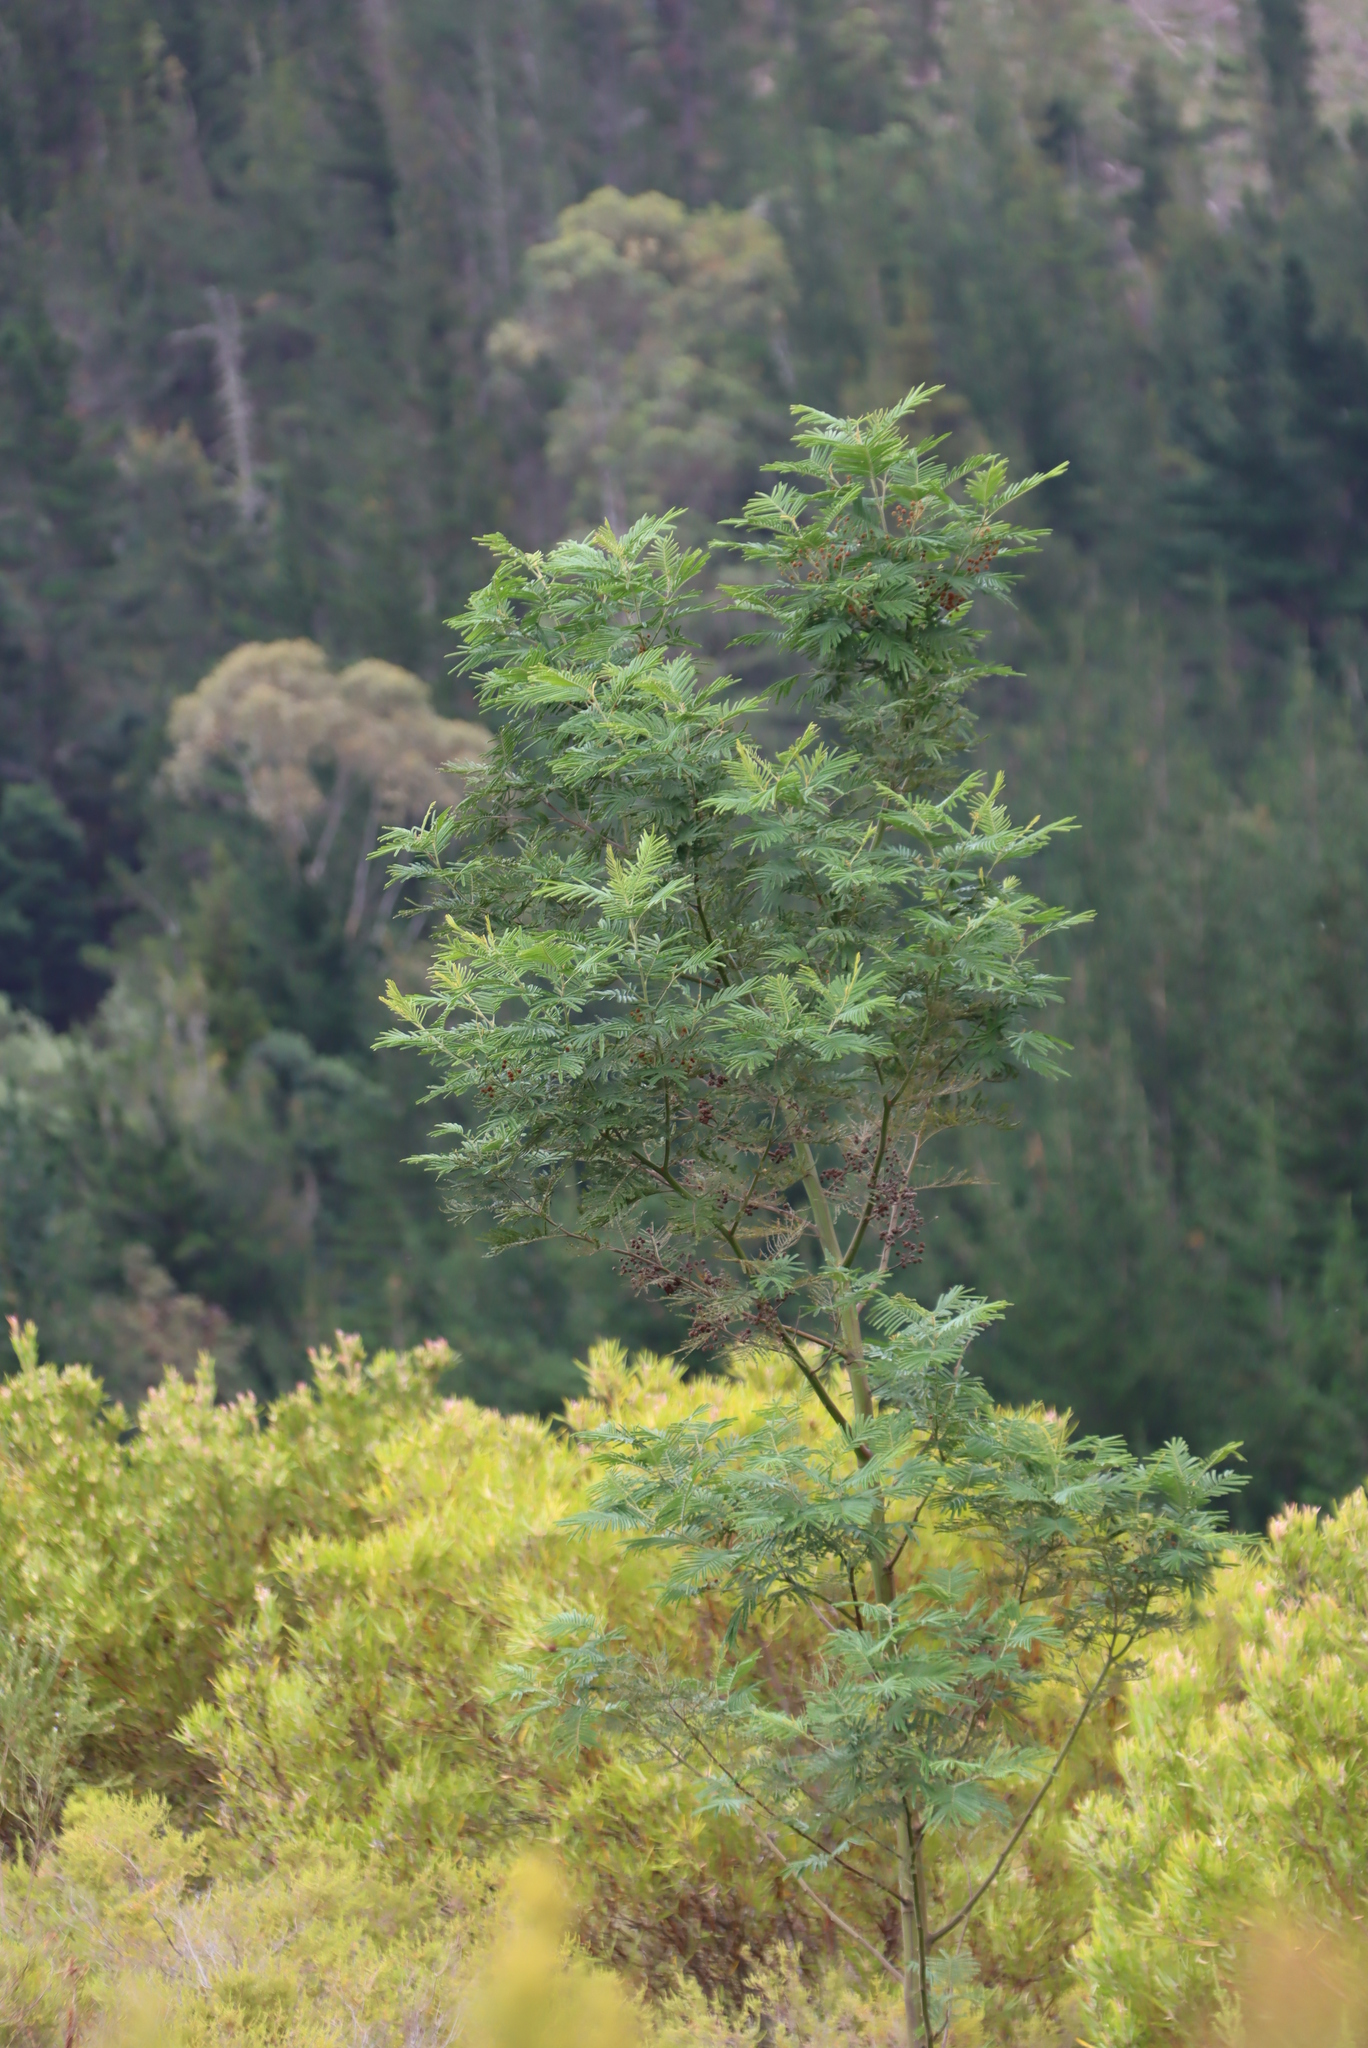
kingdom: Plantae
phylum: Tracheophyta
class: Magnoliopsida
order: Fabales
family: Fabaceae
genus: Acacia
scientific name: Acacia mearnsii
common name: Black wattle
